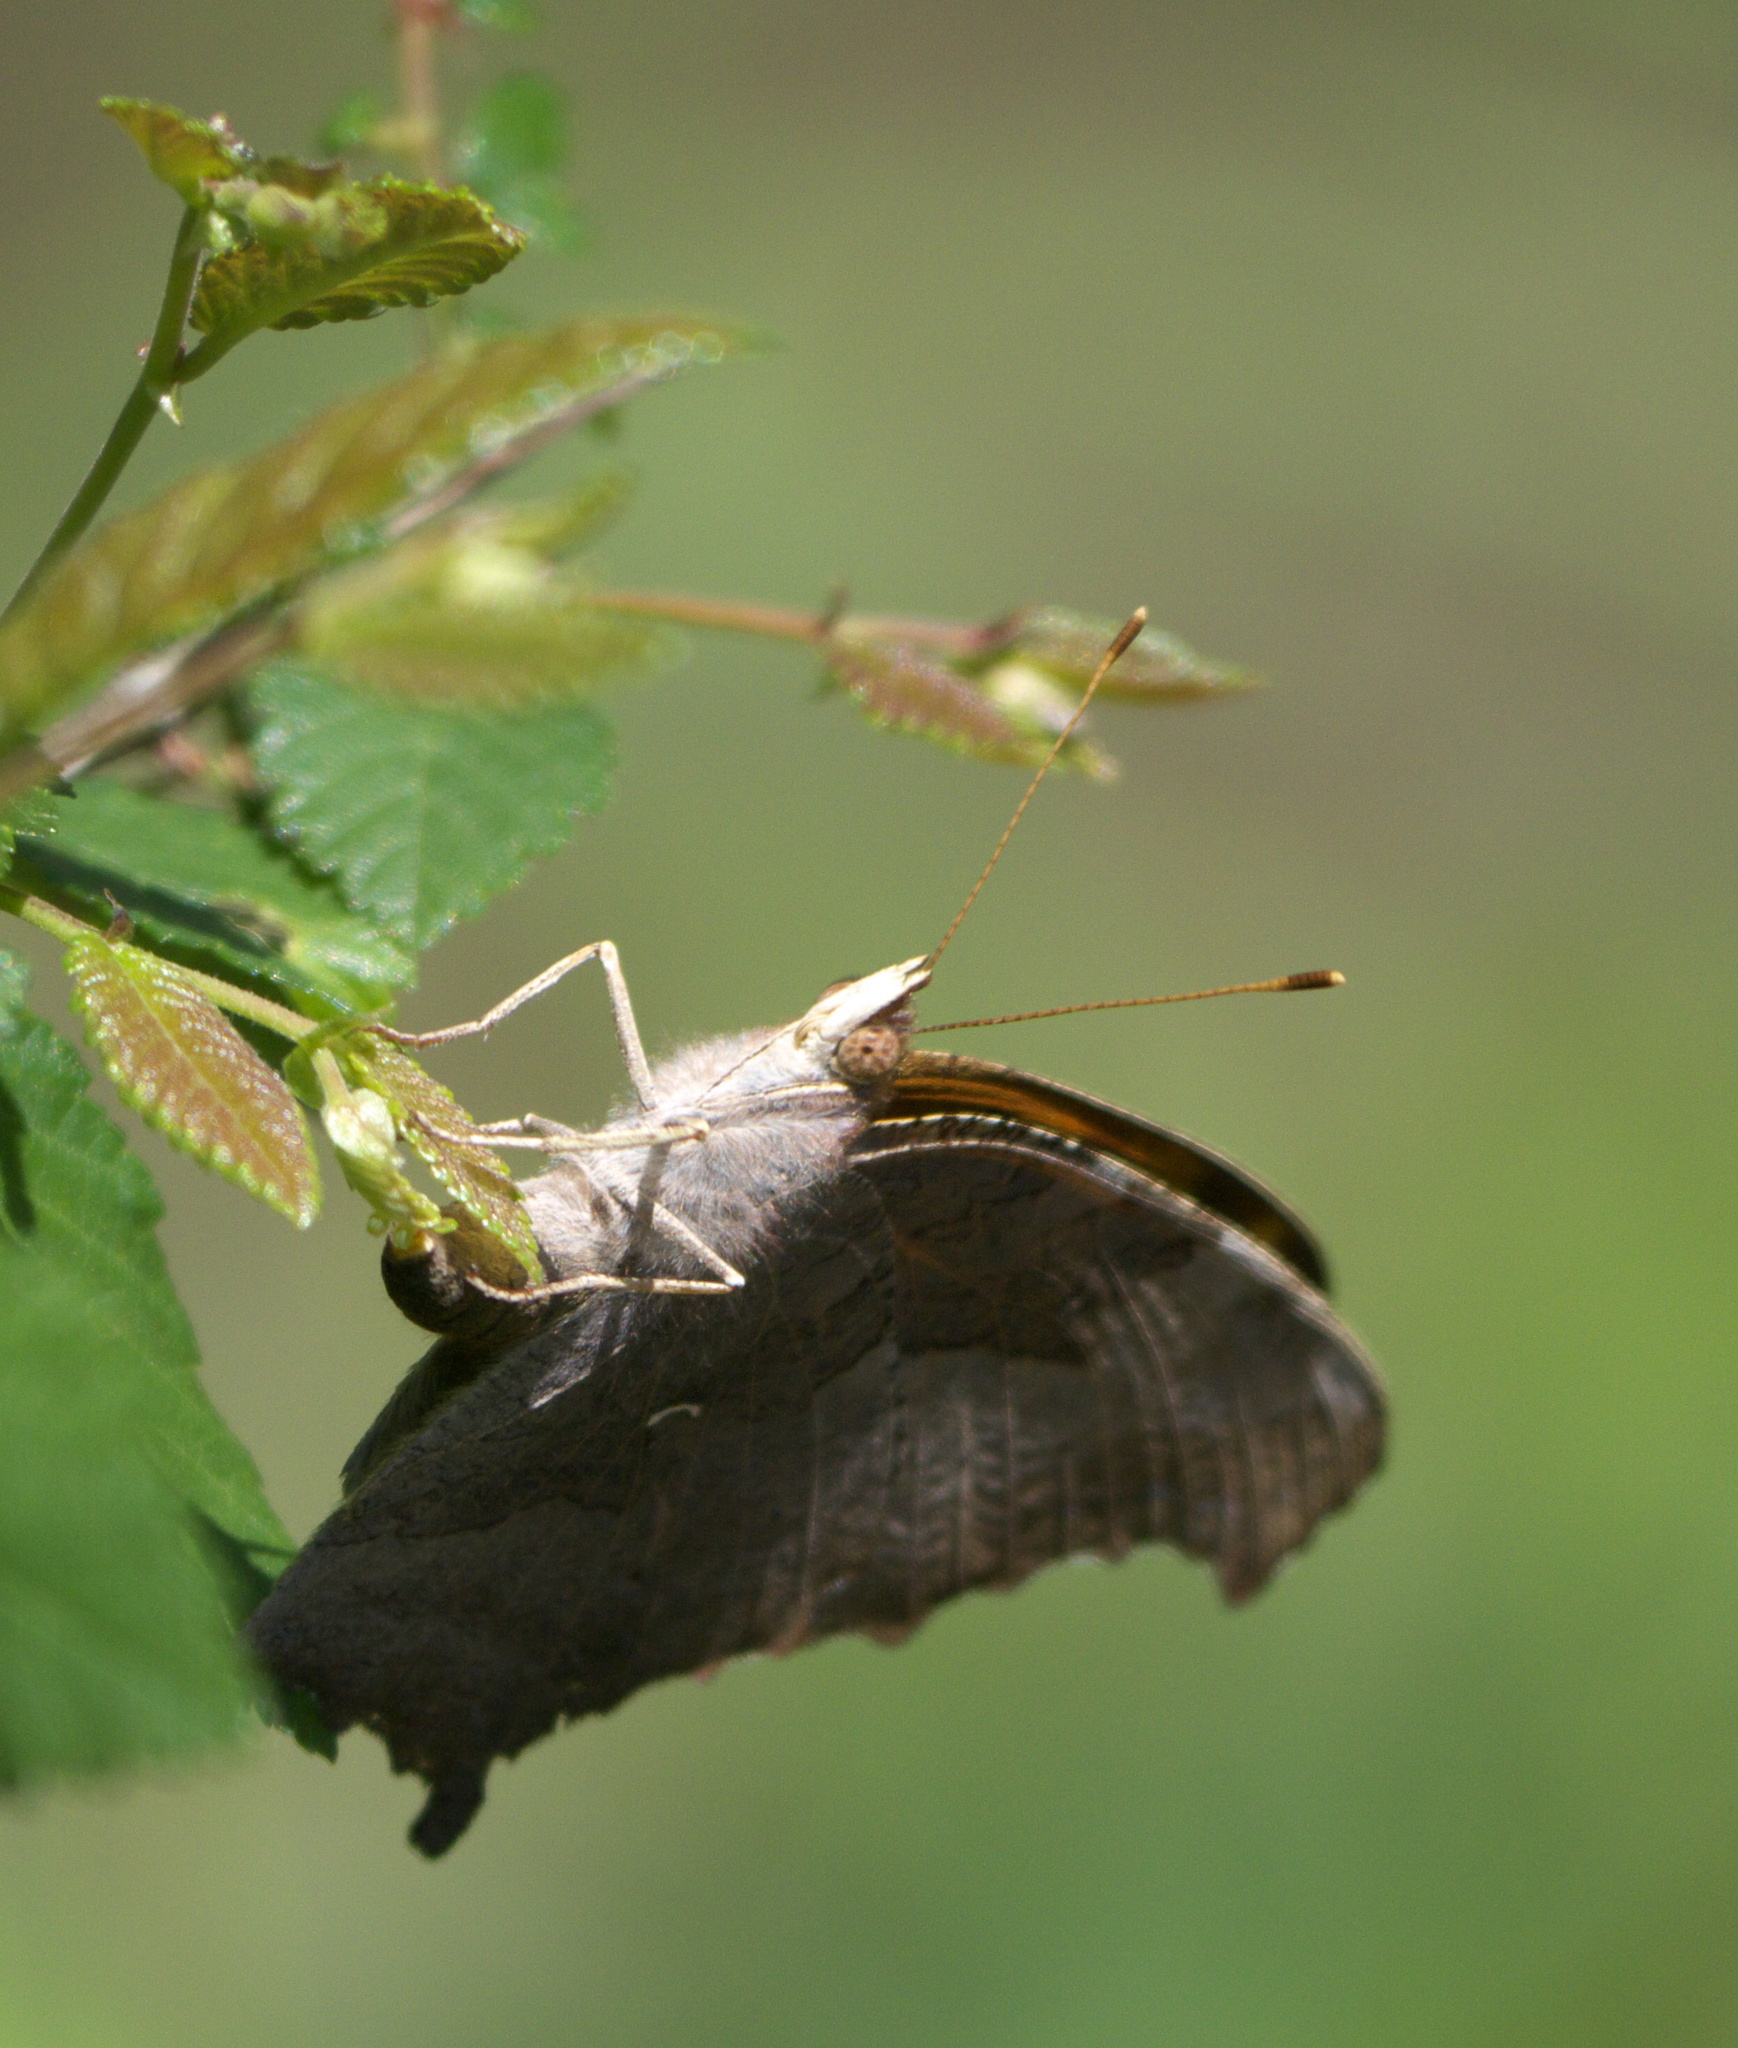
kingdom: Animalia
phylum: Arthropoda
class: Insecta
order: Lepidoptera
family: Nymphalidae
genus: Polygonia
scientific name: Polygonia comma
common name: Eastern comma
